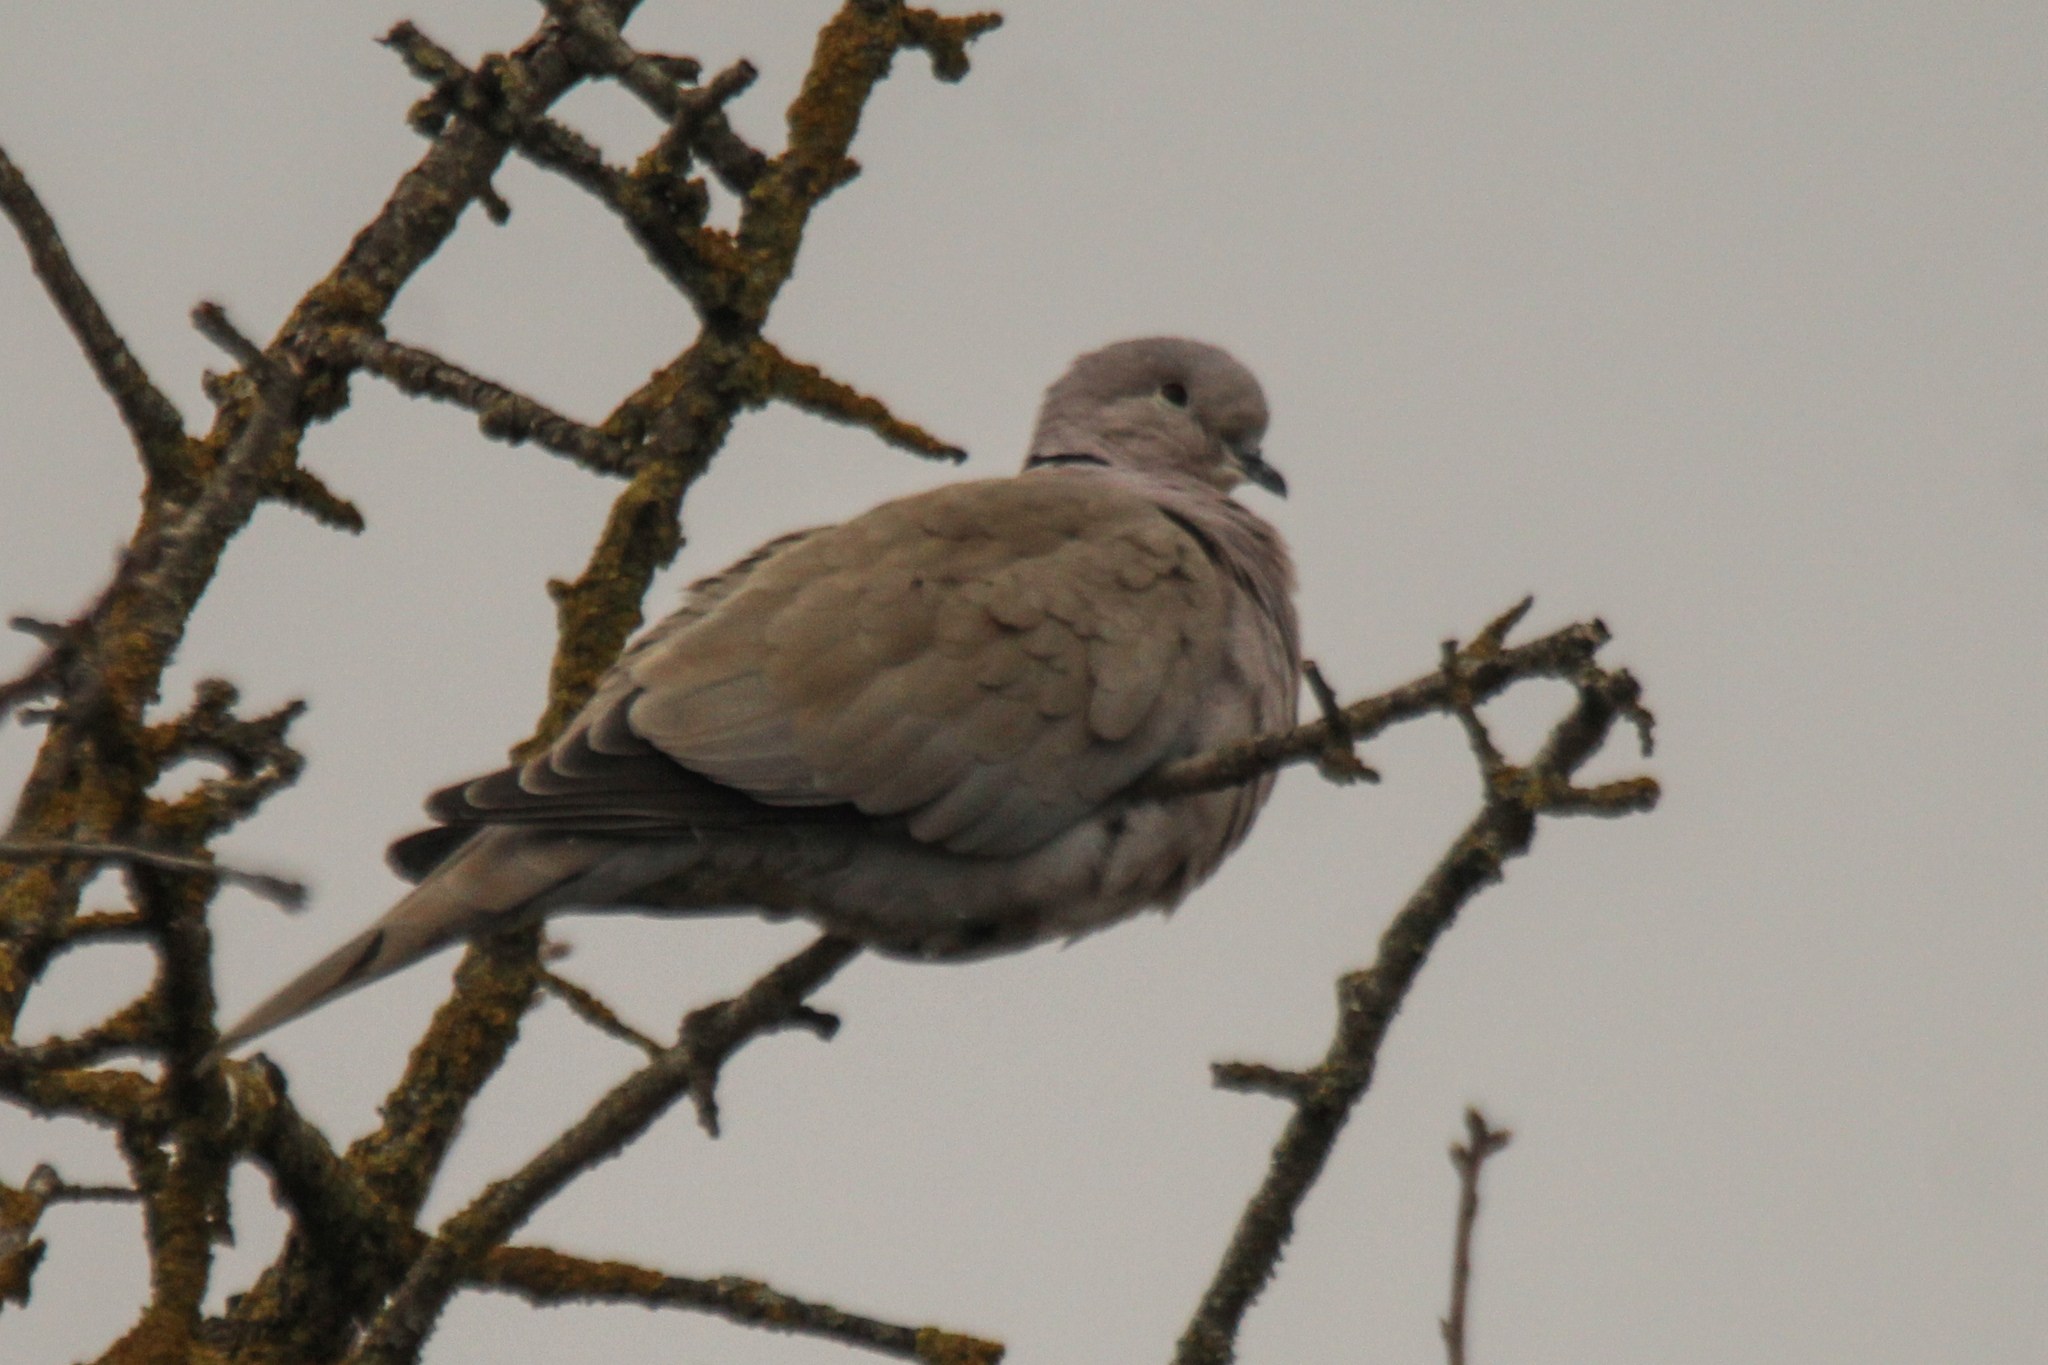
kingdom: Animalia
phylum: Chordata
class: Aves
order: Columbiformes
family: Columbidae
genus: Streptopelia
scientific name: Streptopelia decaocto
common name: Eurasian collared dove
